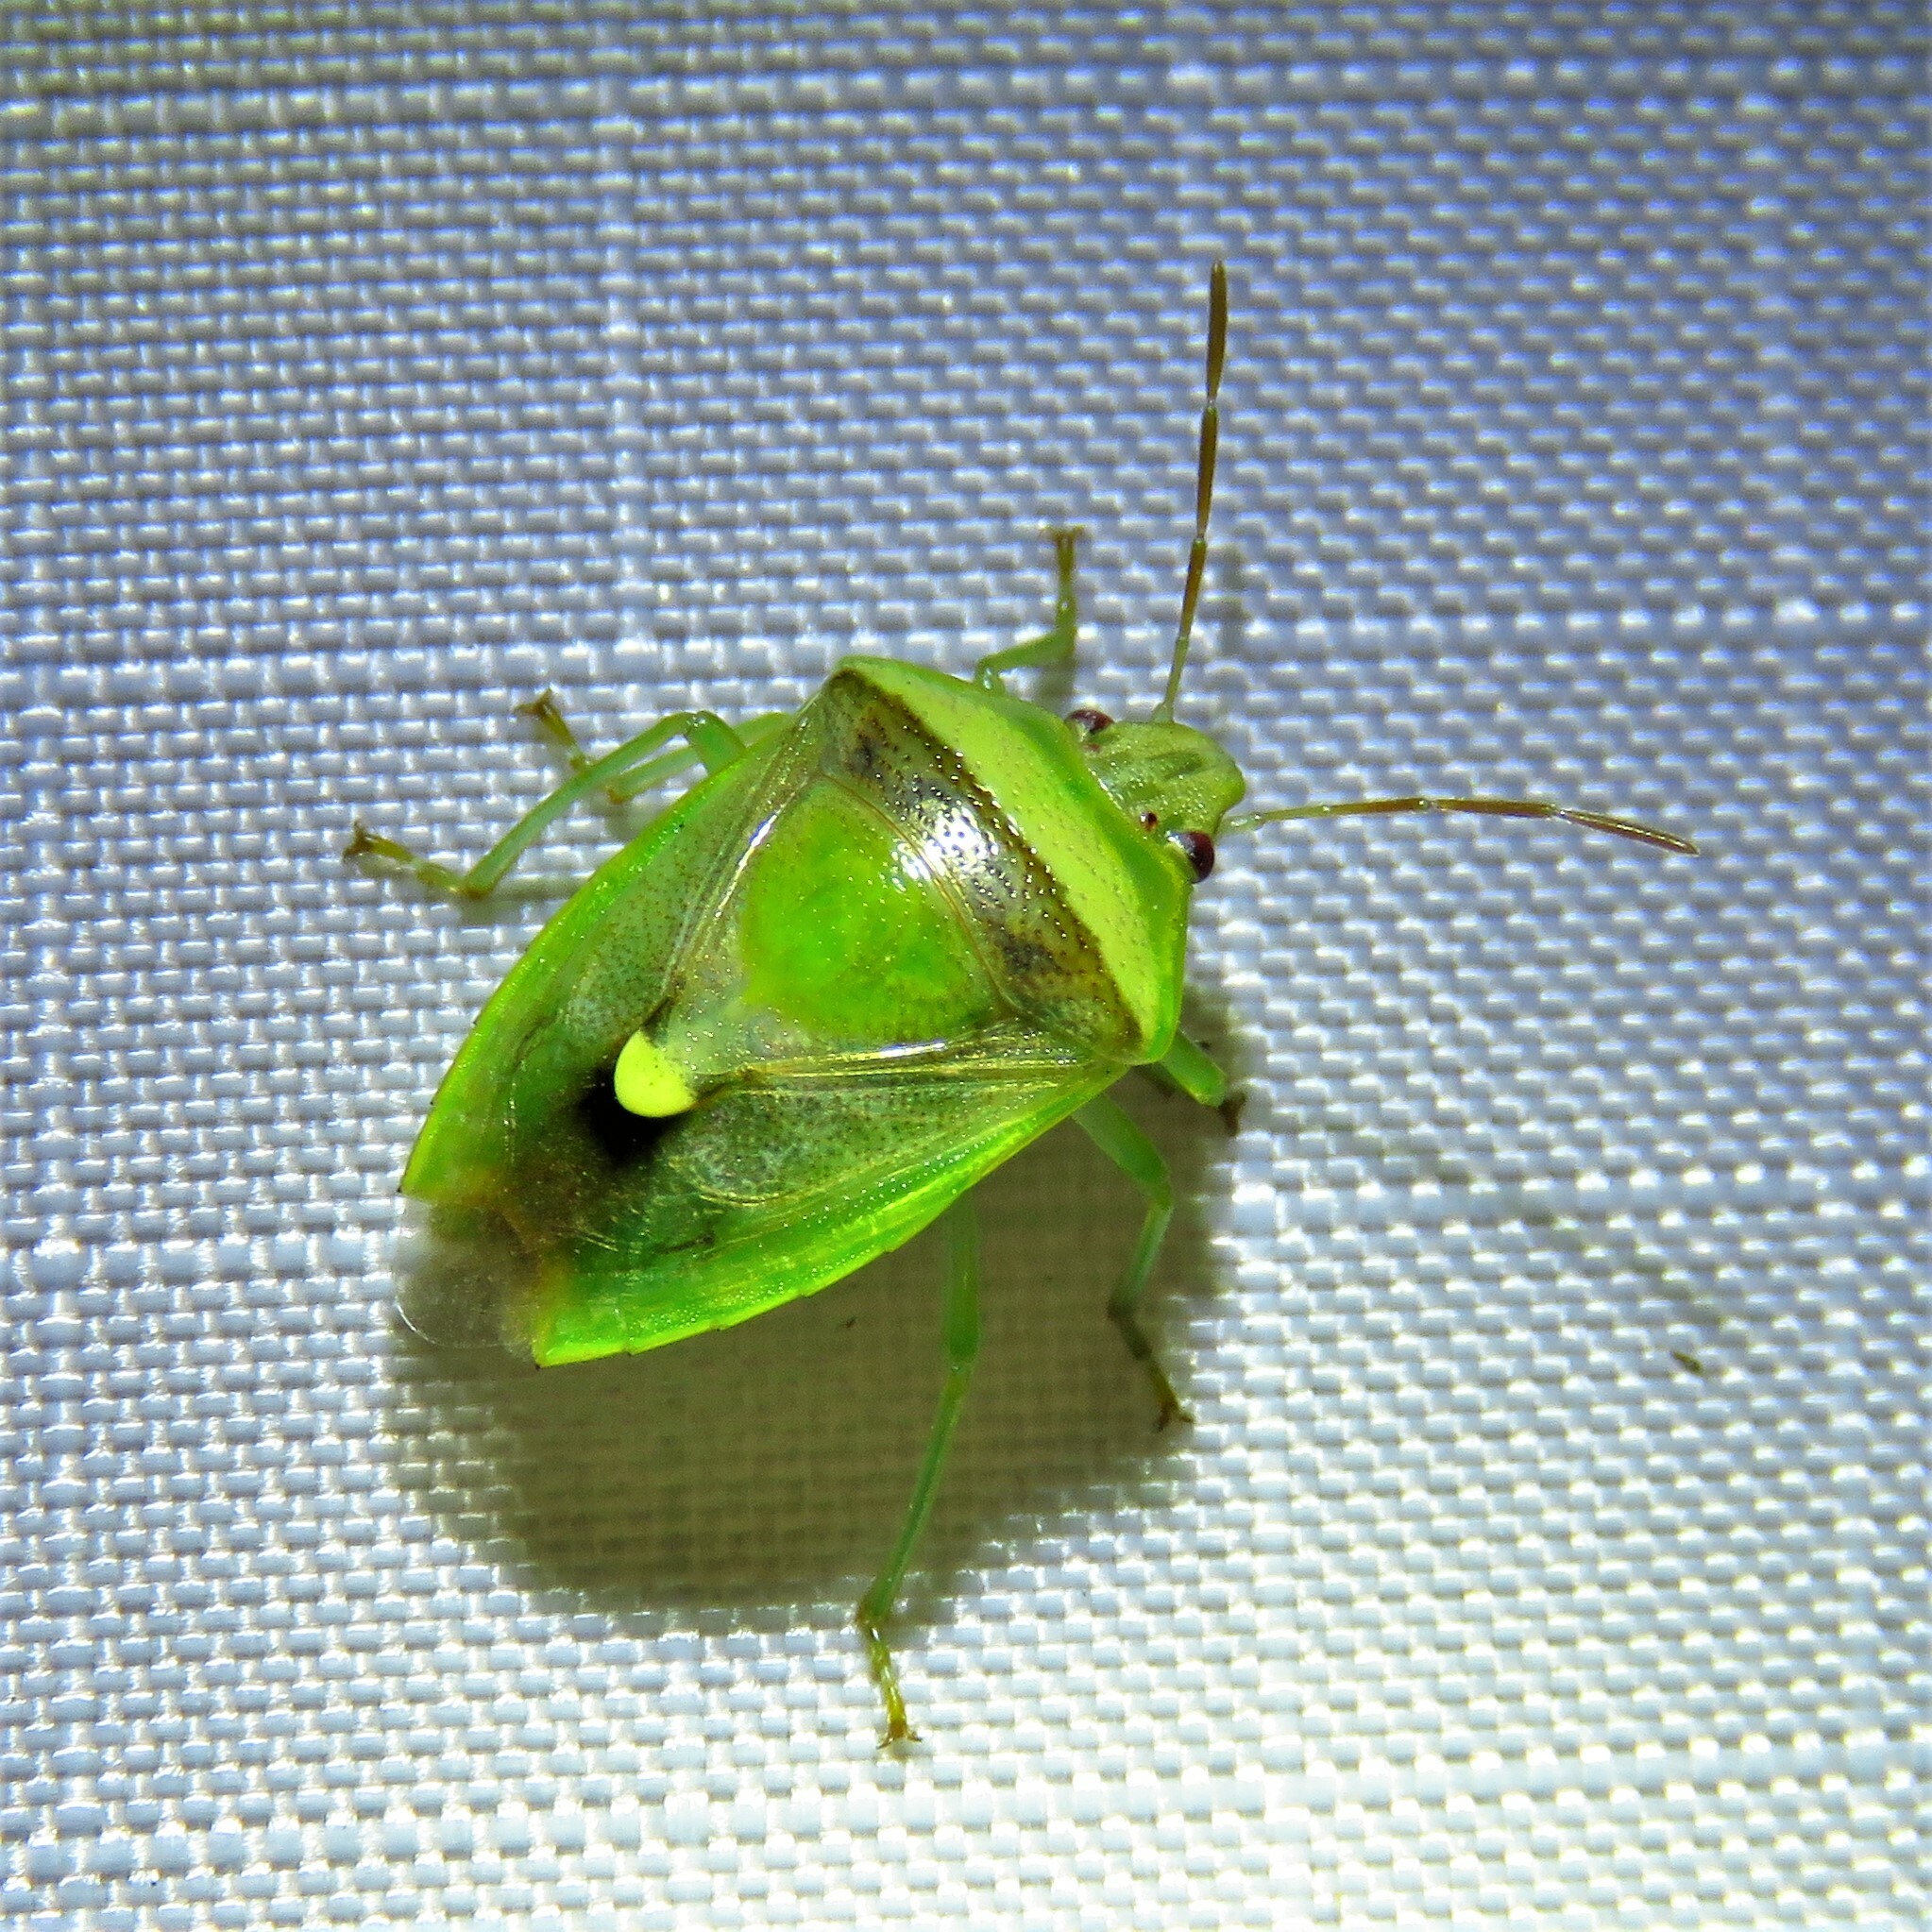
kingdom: Animalia
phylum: Arthropoda
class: Insecta
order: Hemiptera
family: Pentatomidae
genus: Banasa
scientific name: Banasa dimidiata
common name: Green burgundy stink bug
